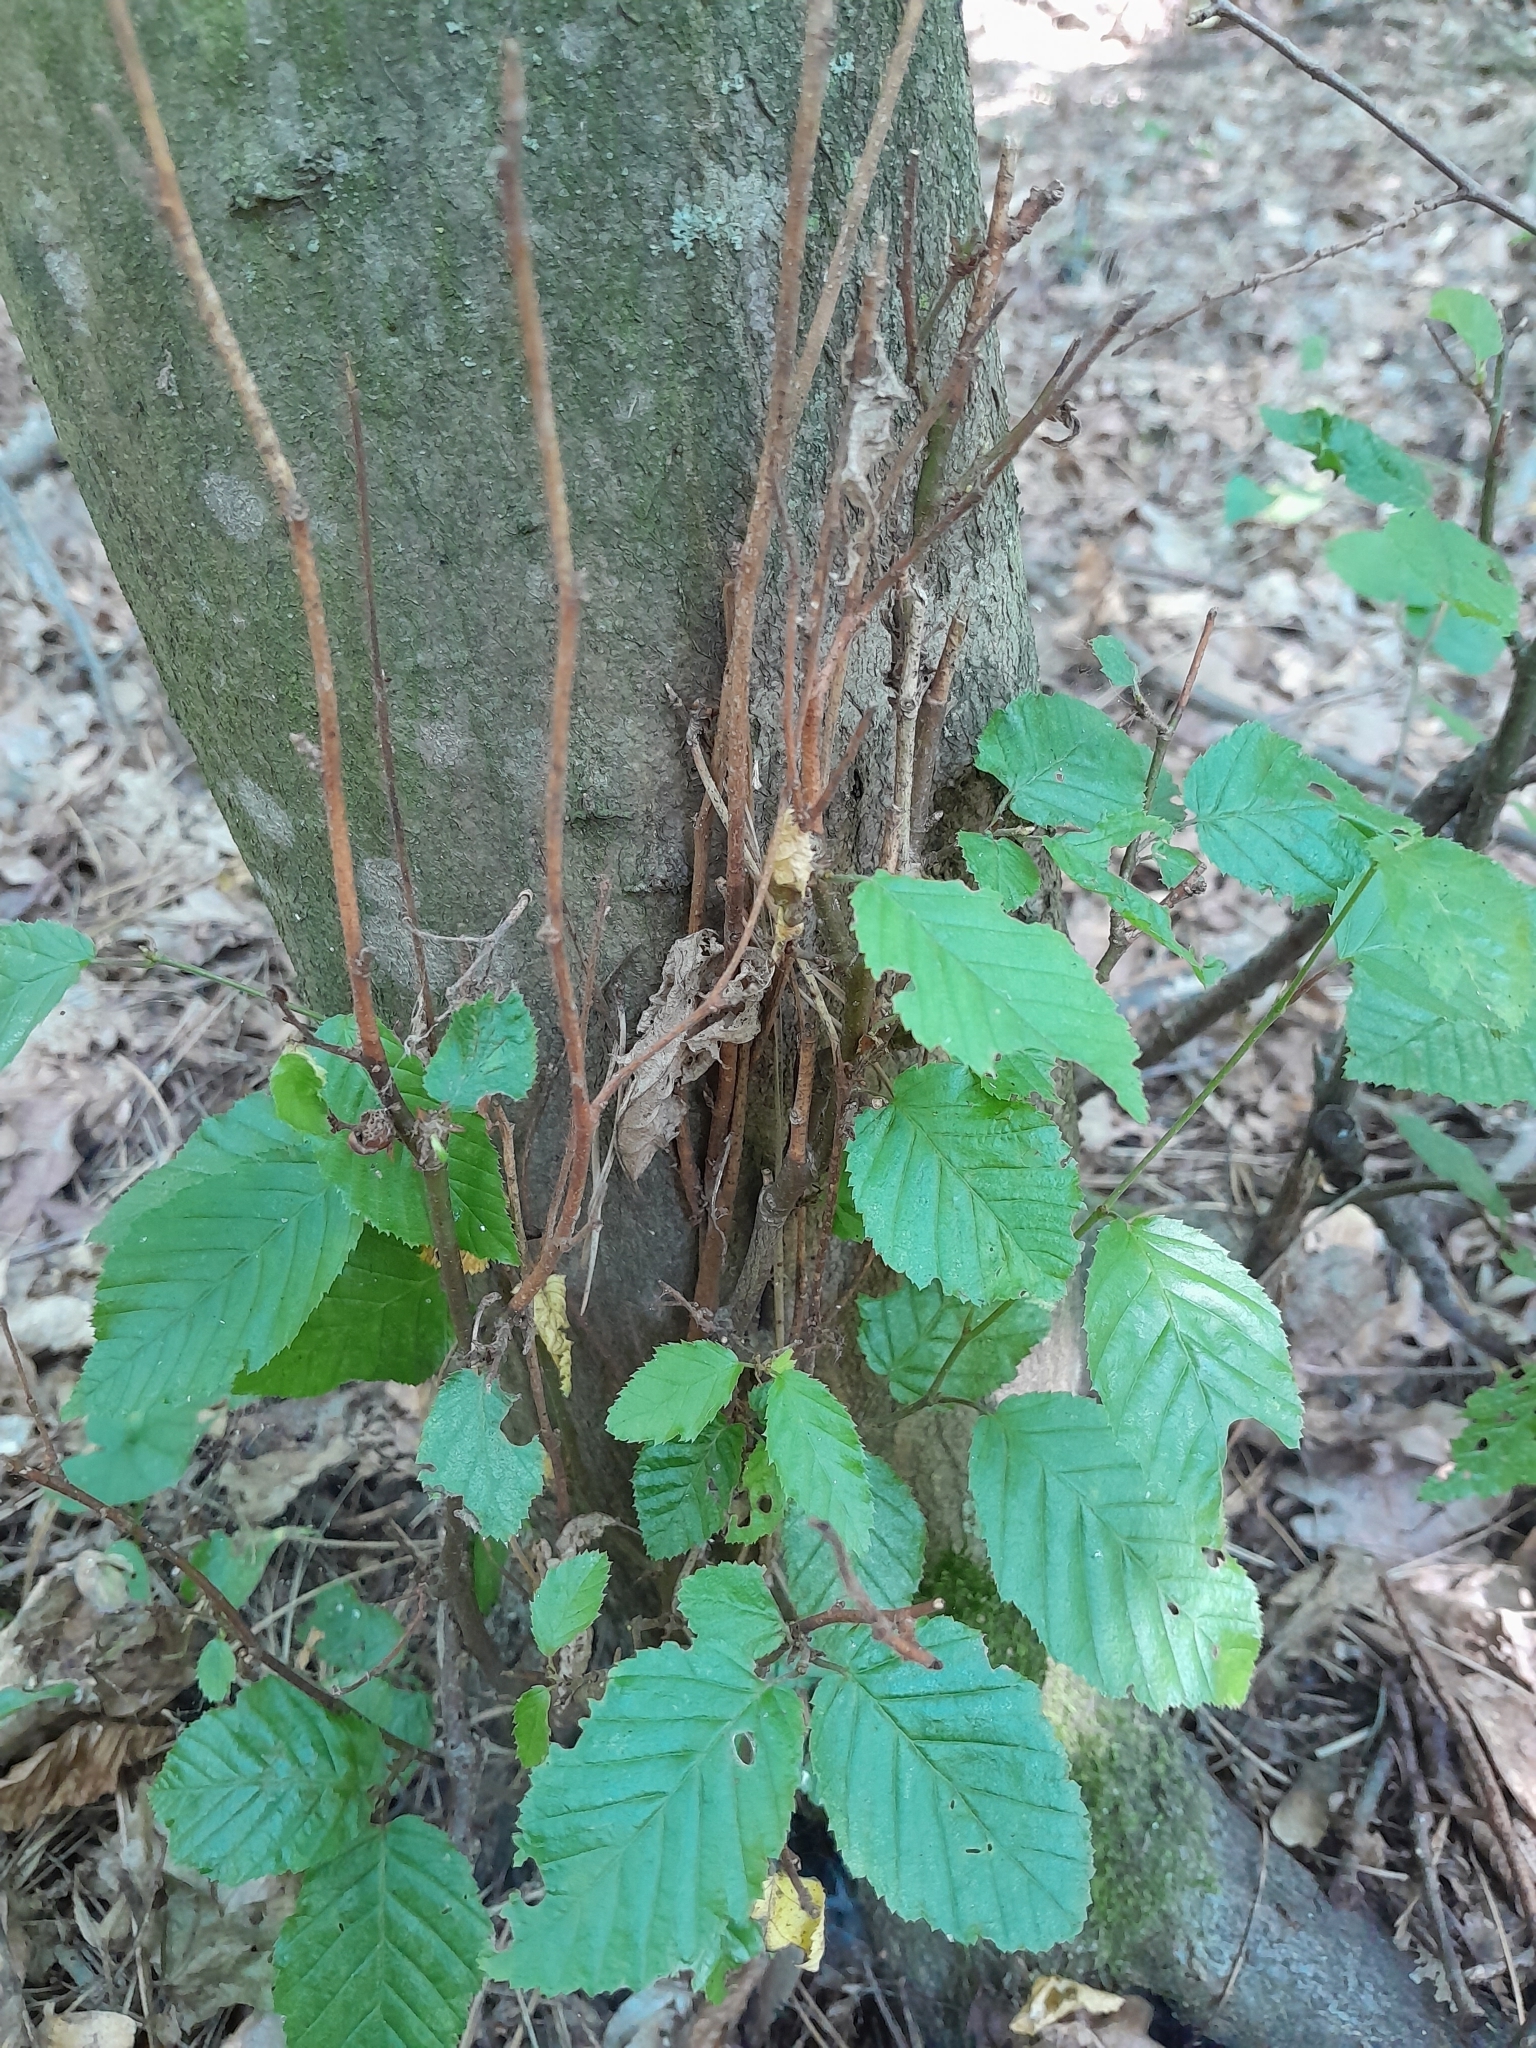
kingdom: Plantae
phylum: Tracheophyta
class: Magnoliopsida
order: Fagales
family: Betulaceae
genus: Carpinus
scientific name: Carpinus betulus
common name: Hornbeam
